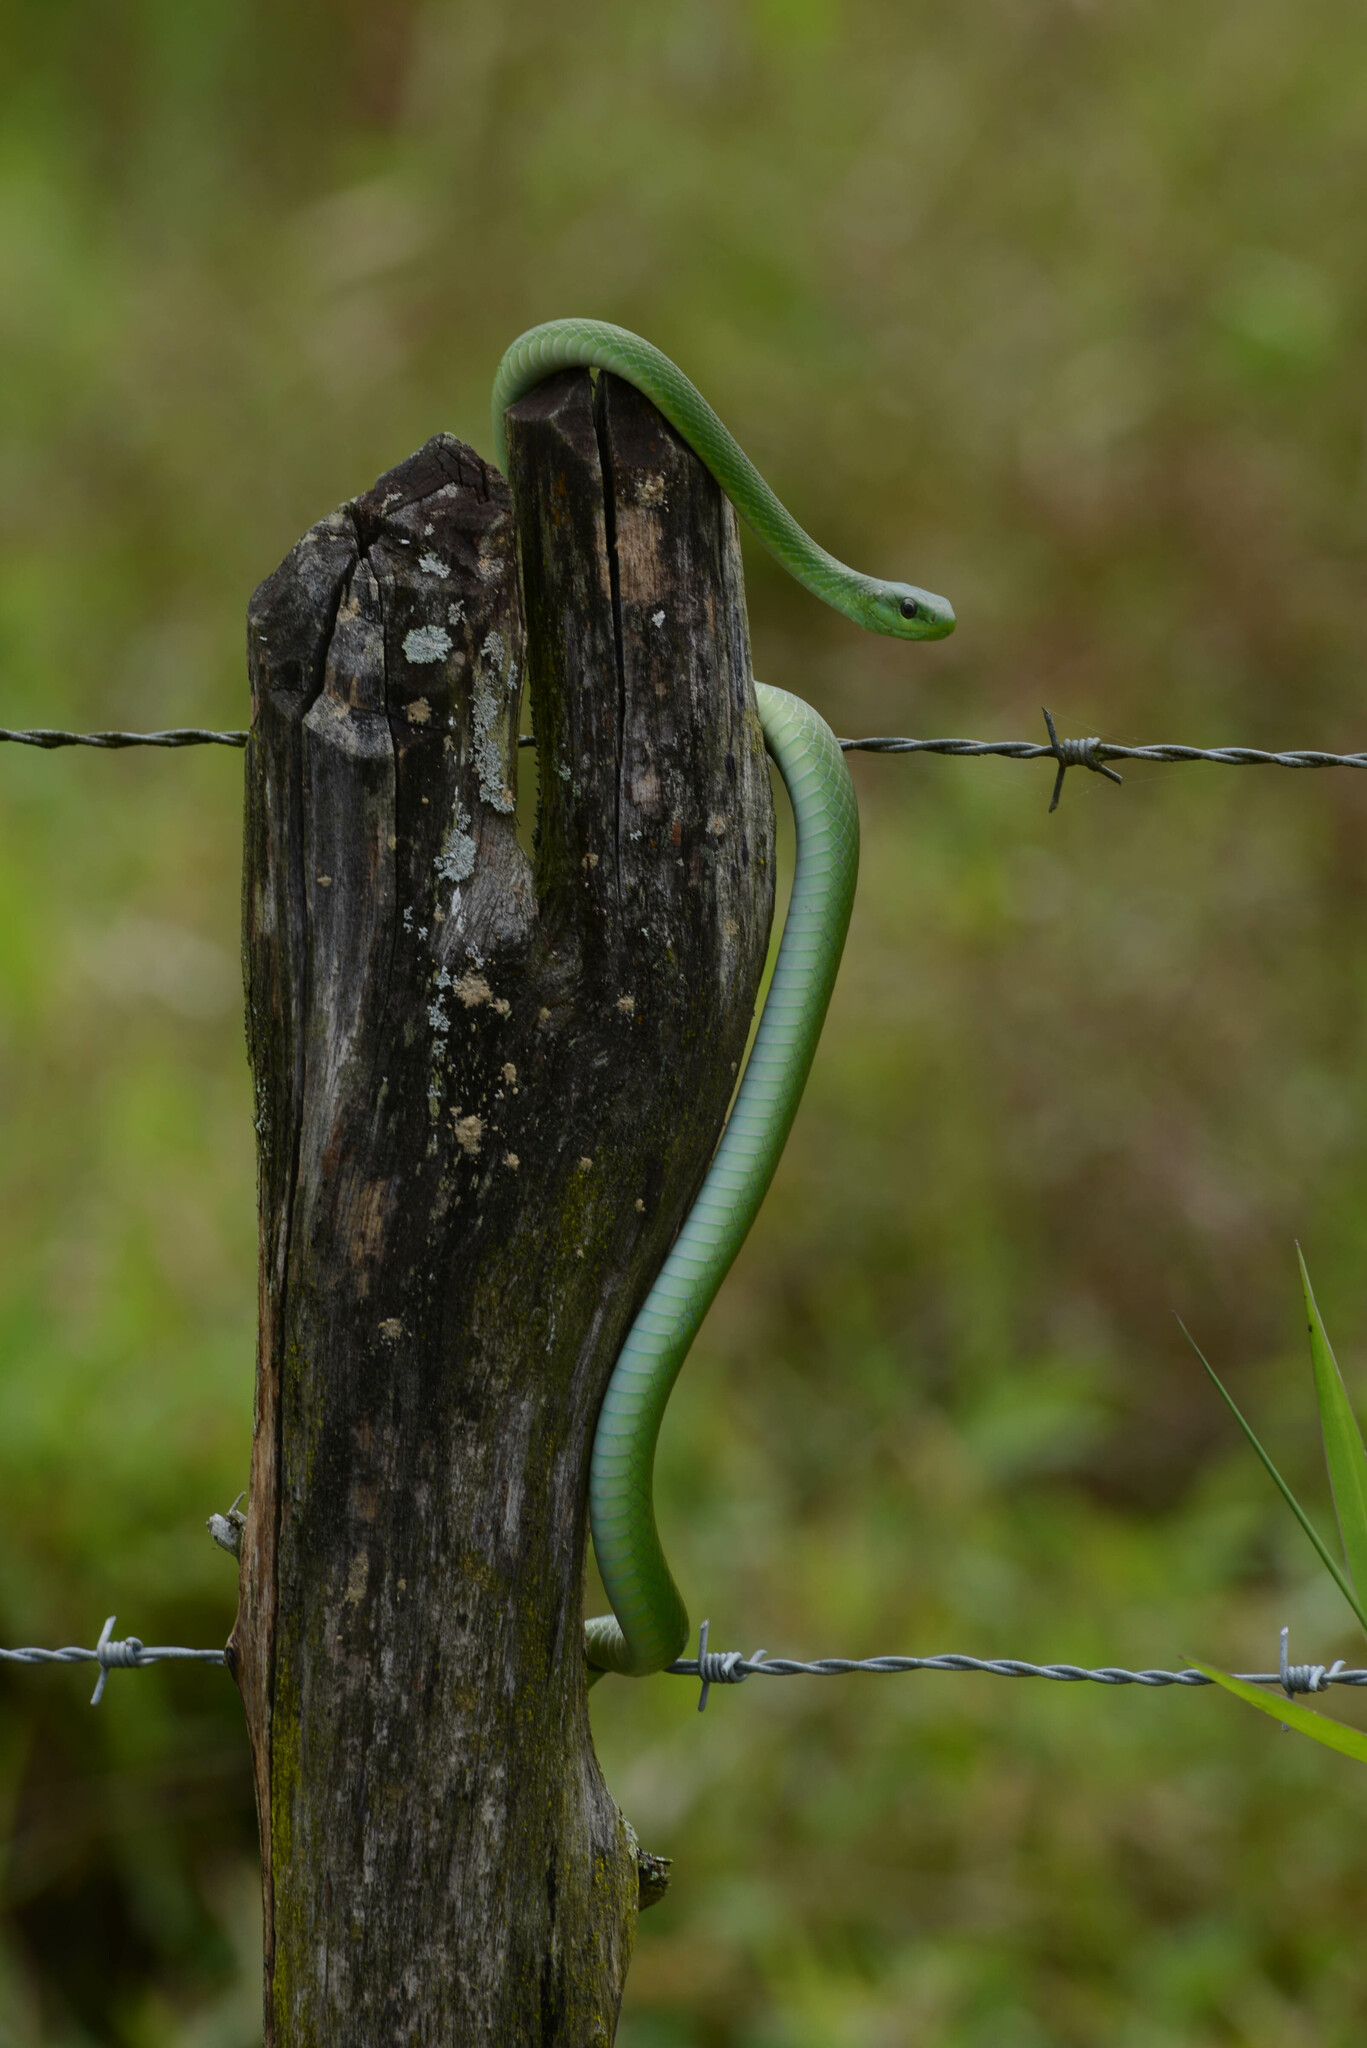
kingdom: Animalia
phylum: Chordata
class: Squamata
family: Colubridae
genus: Philodryas
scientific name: Philodryas olfersii
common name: Lichtenstein's green racer
